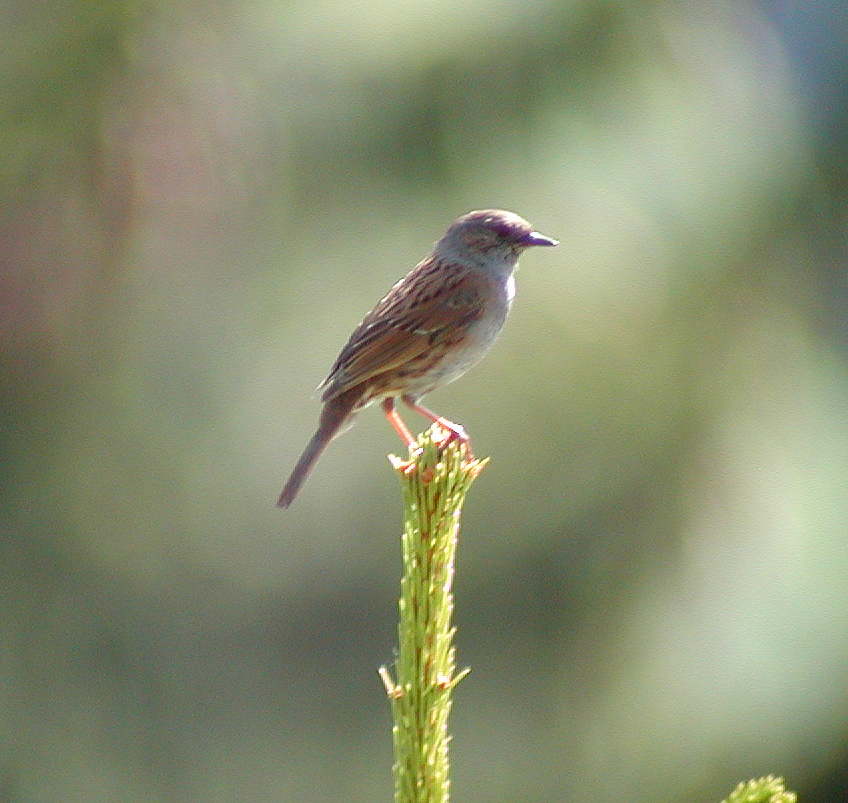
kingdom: Animalia
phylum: Chordata
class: Aves
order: Passeriformes
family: Prunellidae
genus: Prunella
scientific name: Prunella modularis
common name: Dunnock
